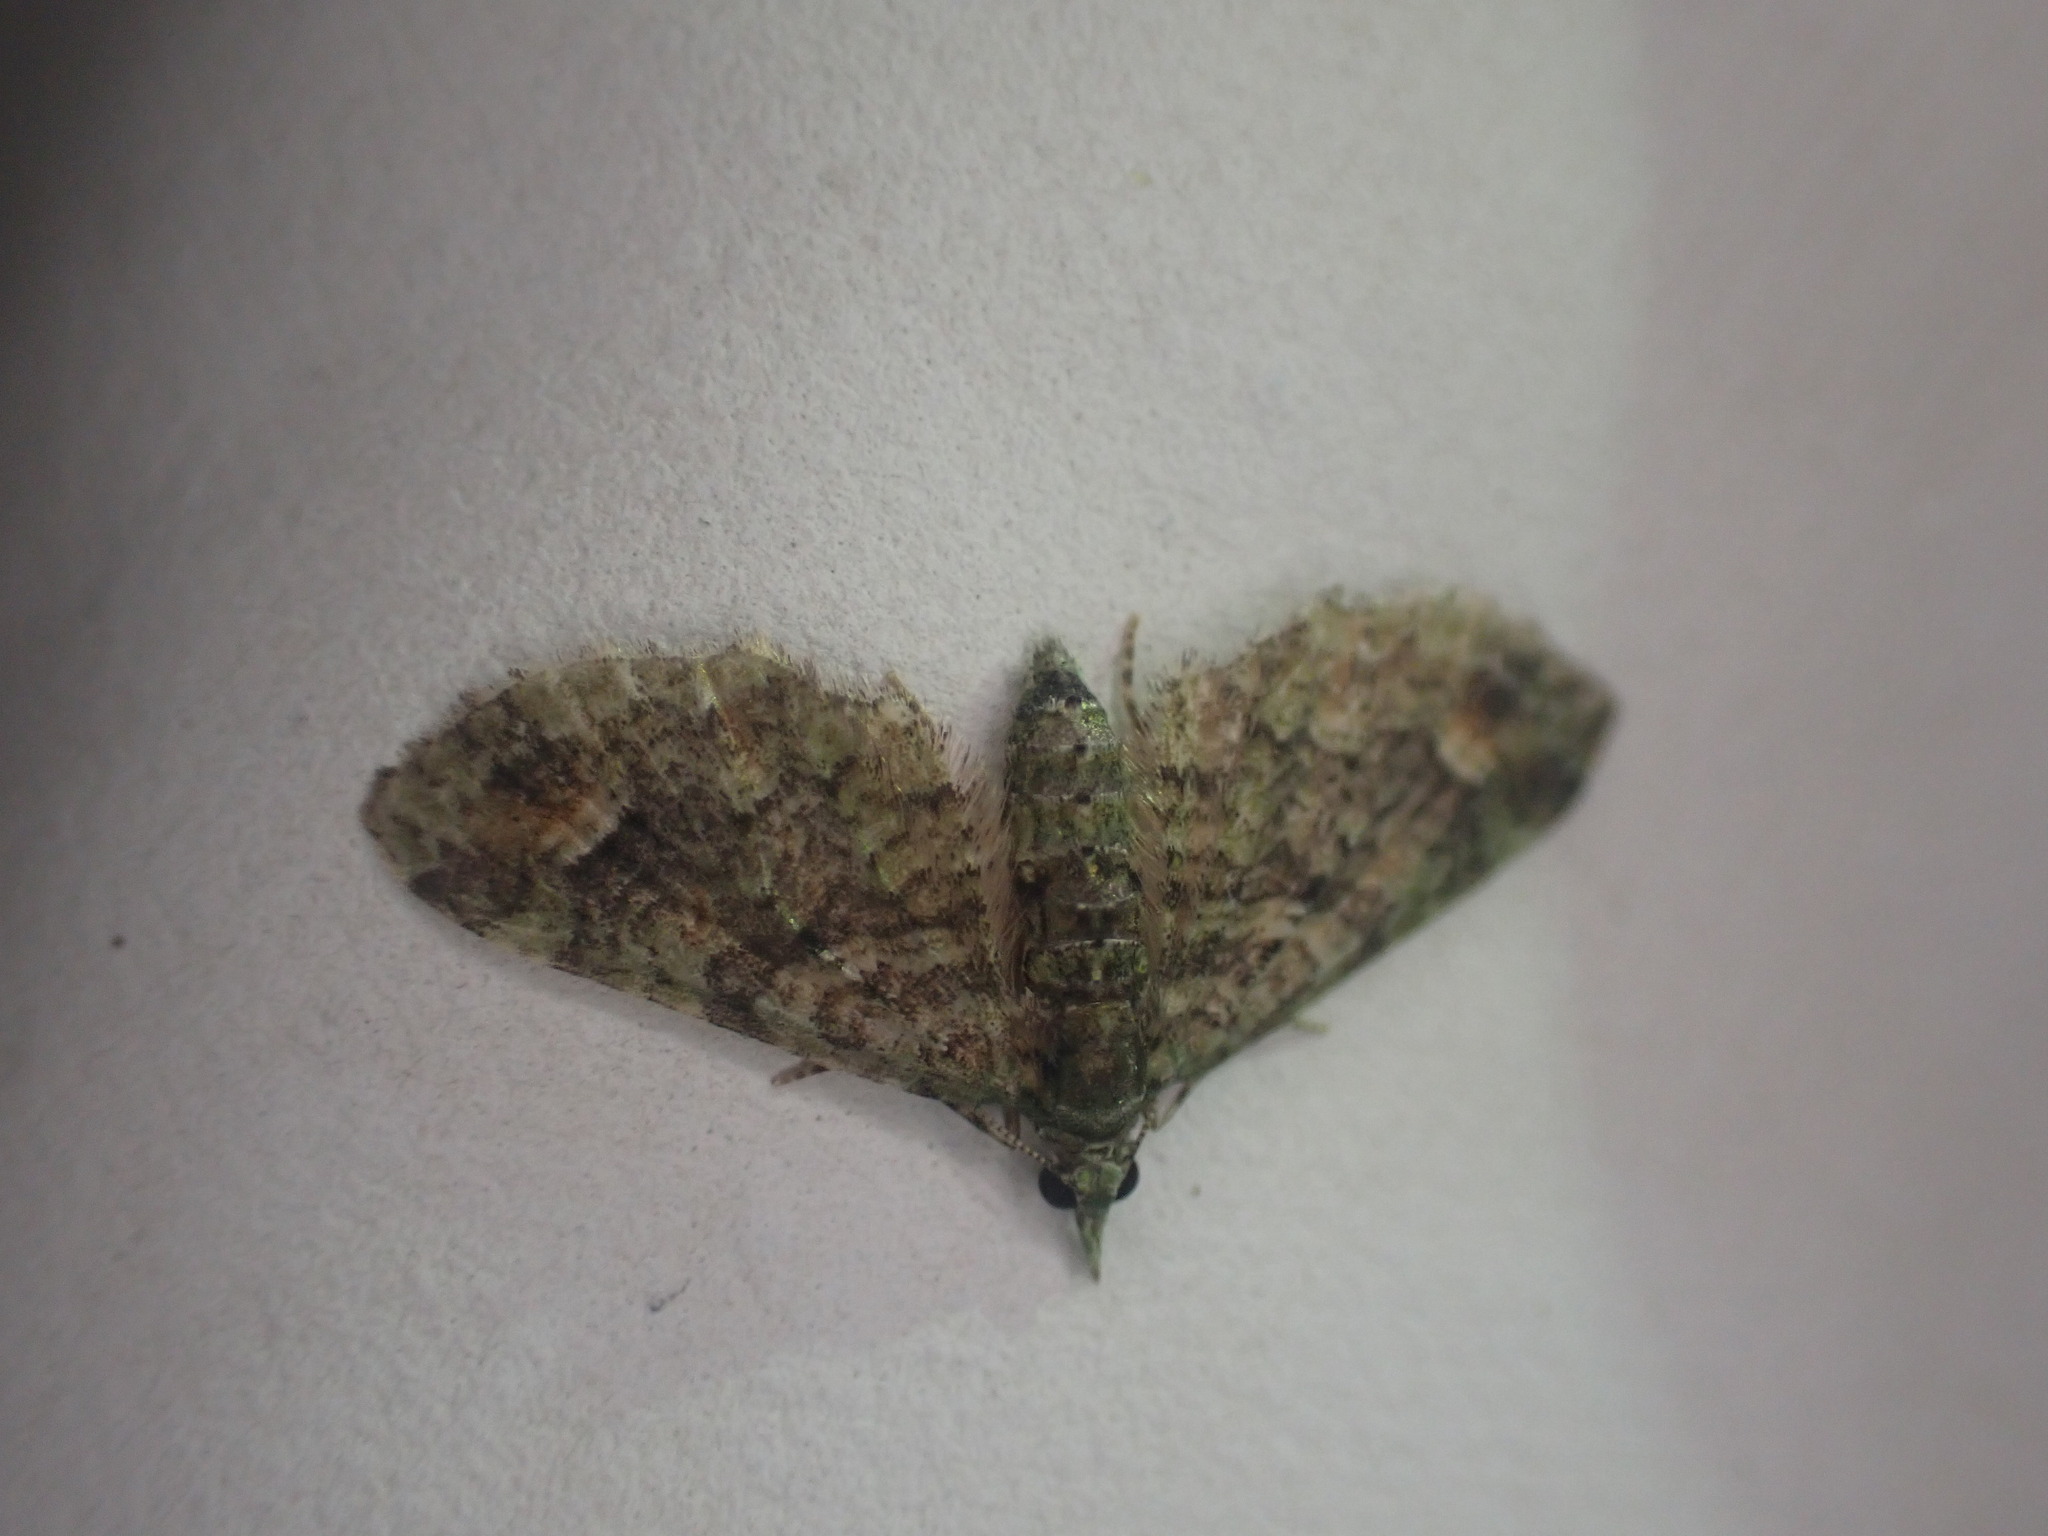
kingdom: Animalia
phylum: Arthropoda
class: Insecta
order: Lepidoptera
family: Geometridae
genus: Idaea
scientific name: Idaea mutanda
